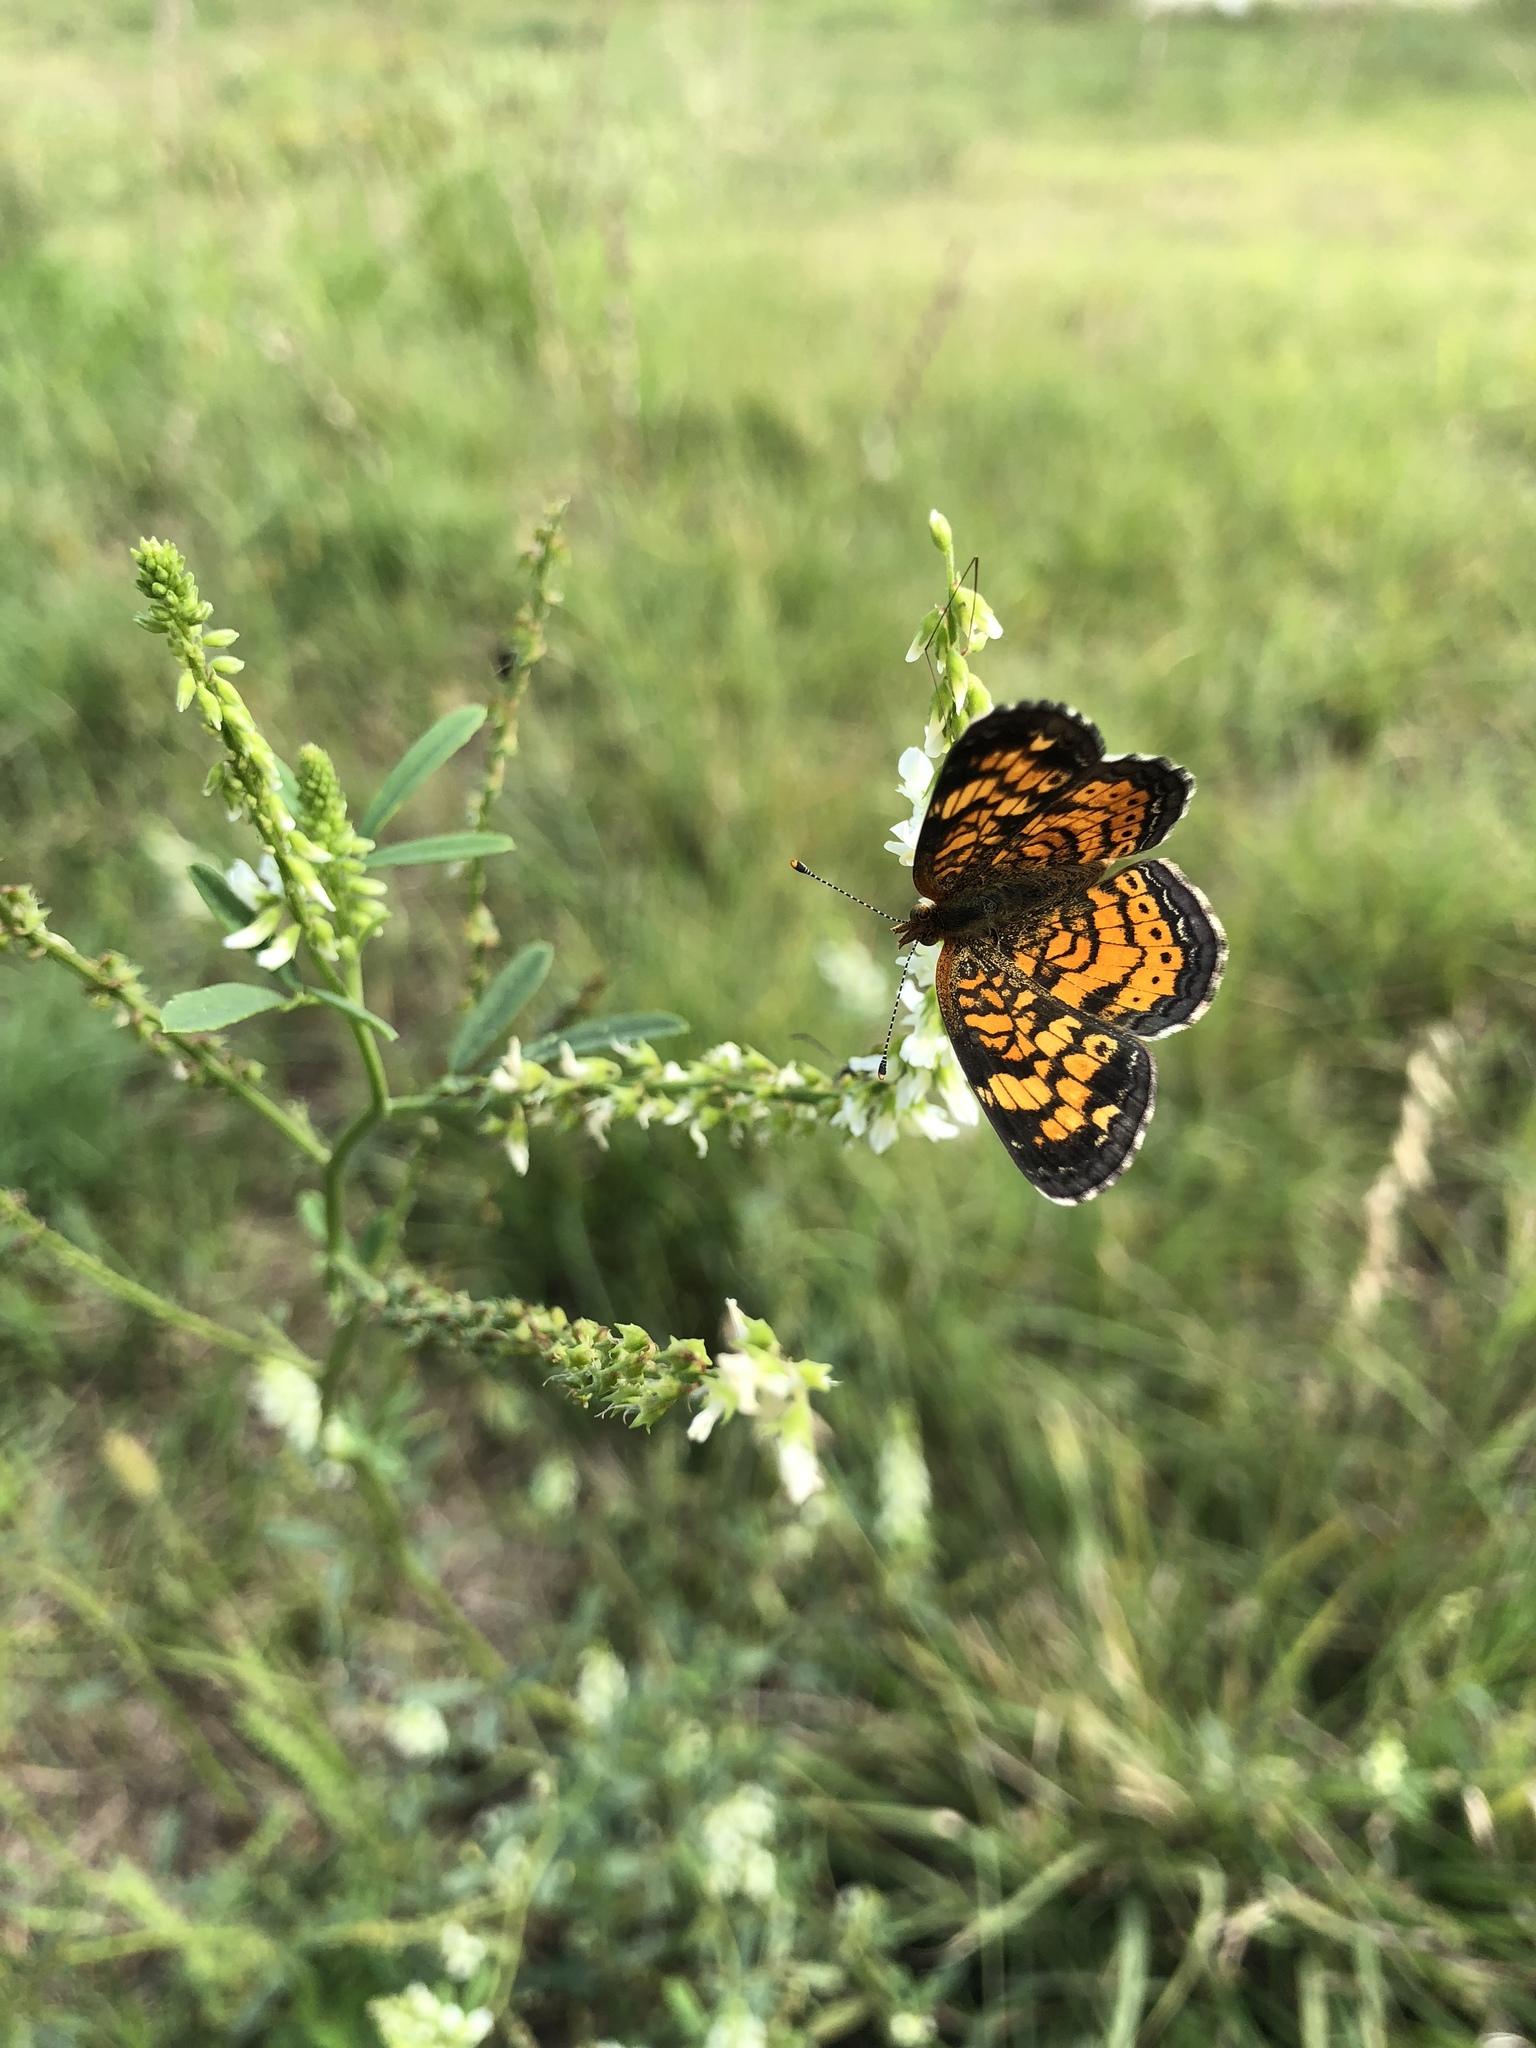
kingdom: Animalia
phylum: Arthropoda
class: Insecta
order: Lepidoptera
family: Nymphalidae
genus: Phyciodes
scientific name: Phyciodes tharos
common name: Pearl crescent
